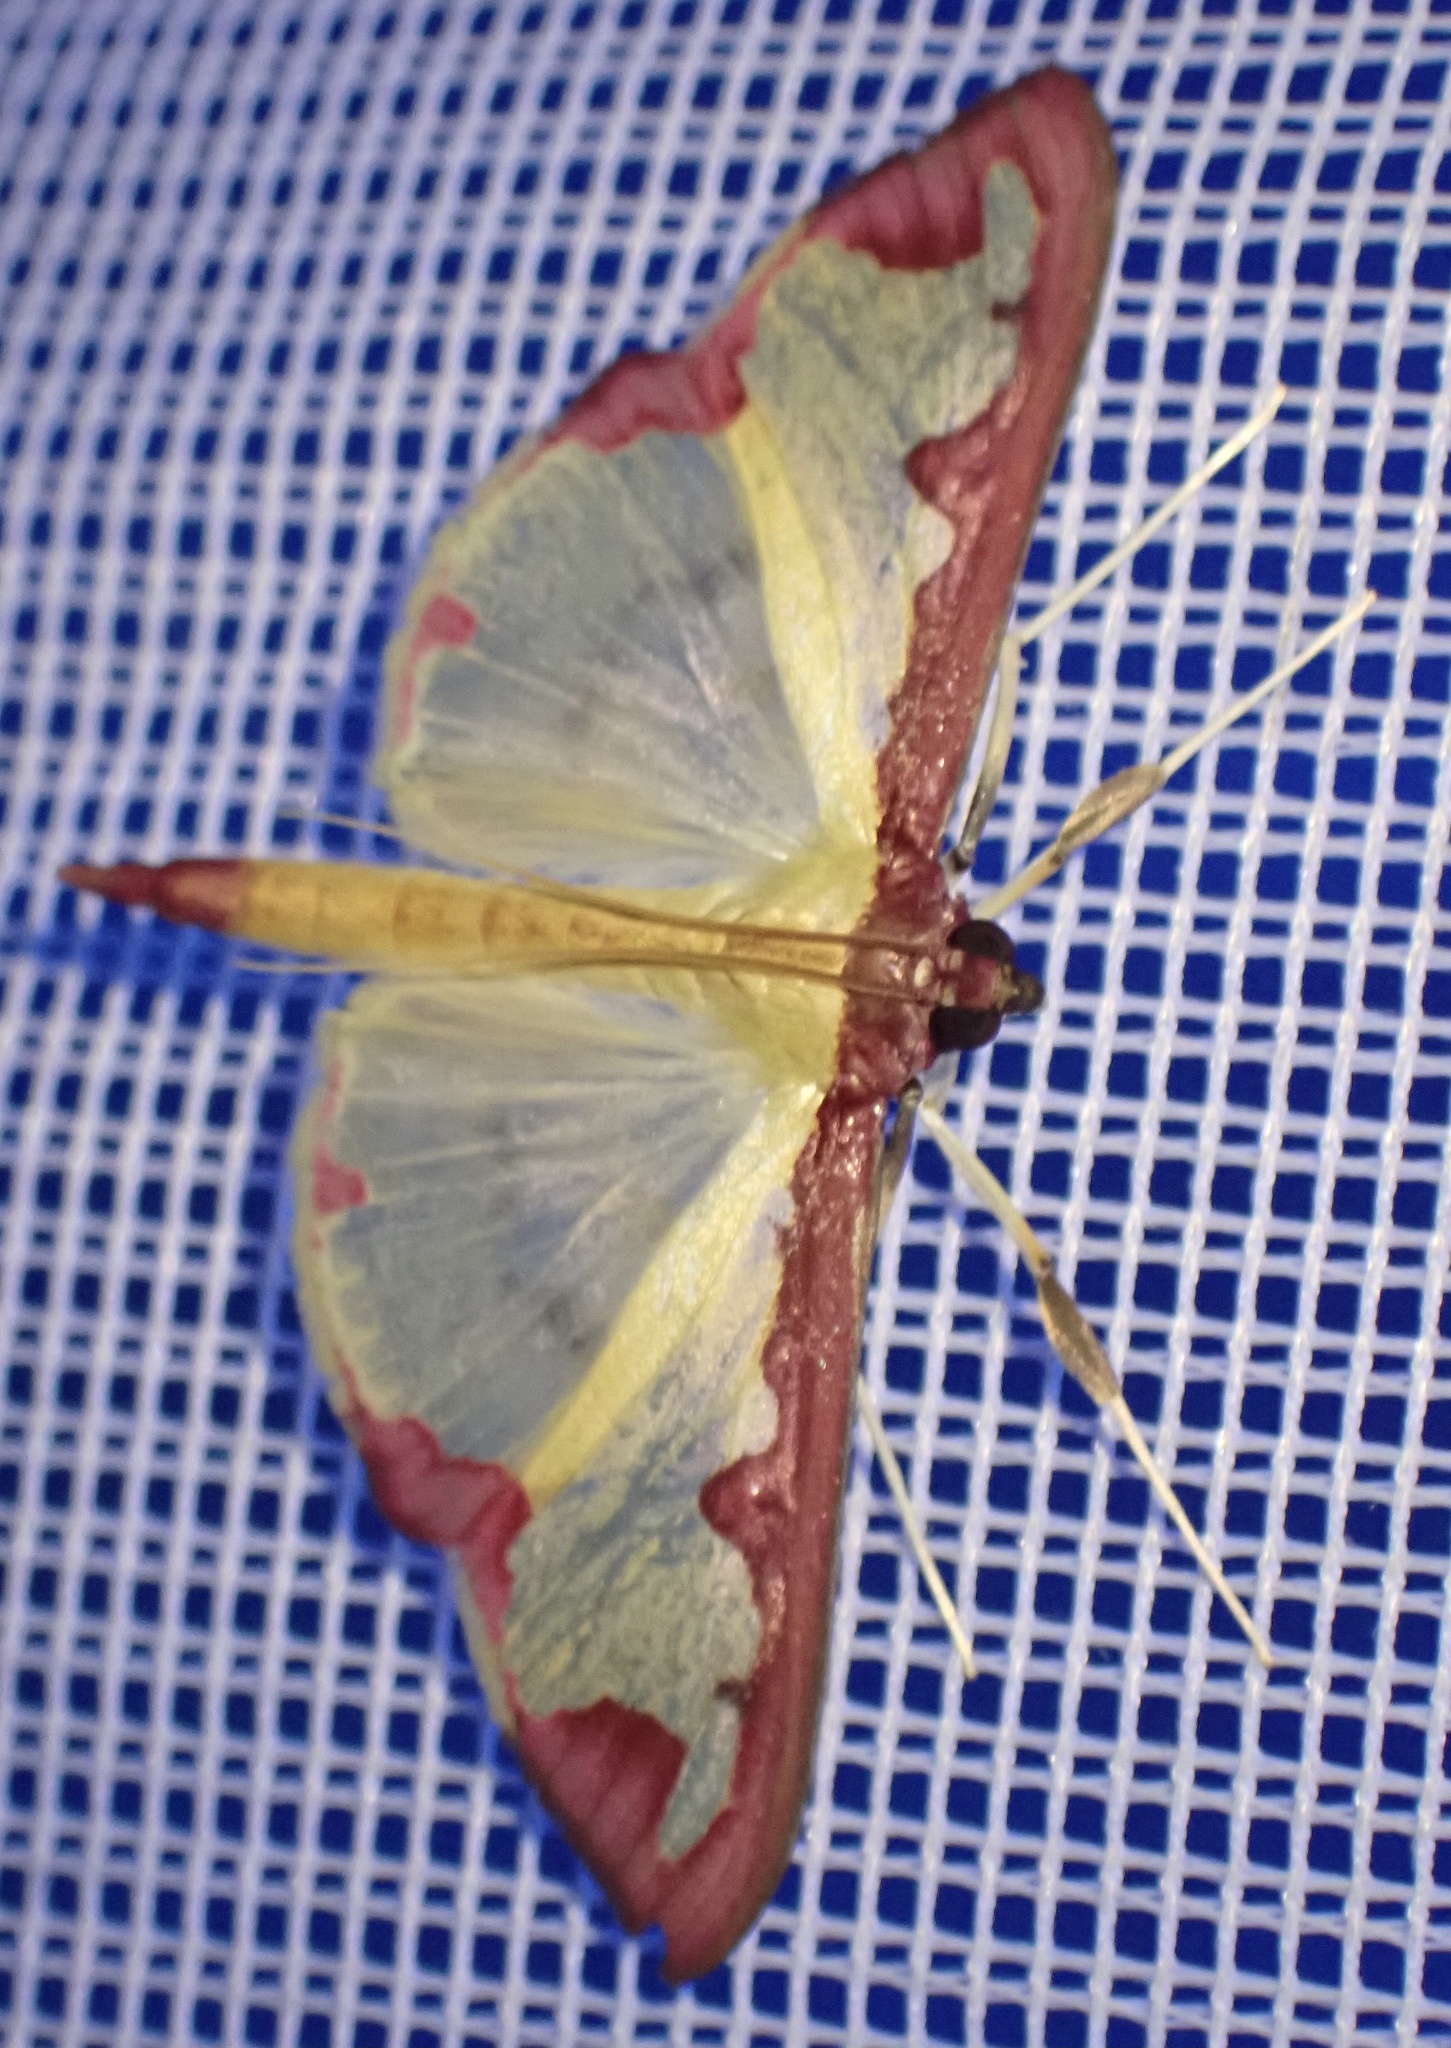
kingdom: Animalia
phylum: Arthropoda
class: Insecta
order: Lepidoptera
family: Crambidae
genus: Cadarena
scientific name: Cadarena pudoraria
